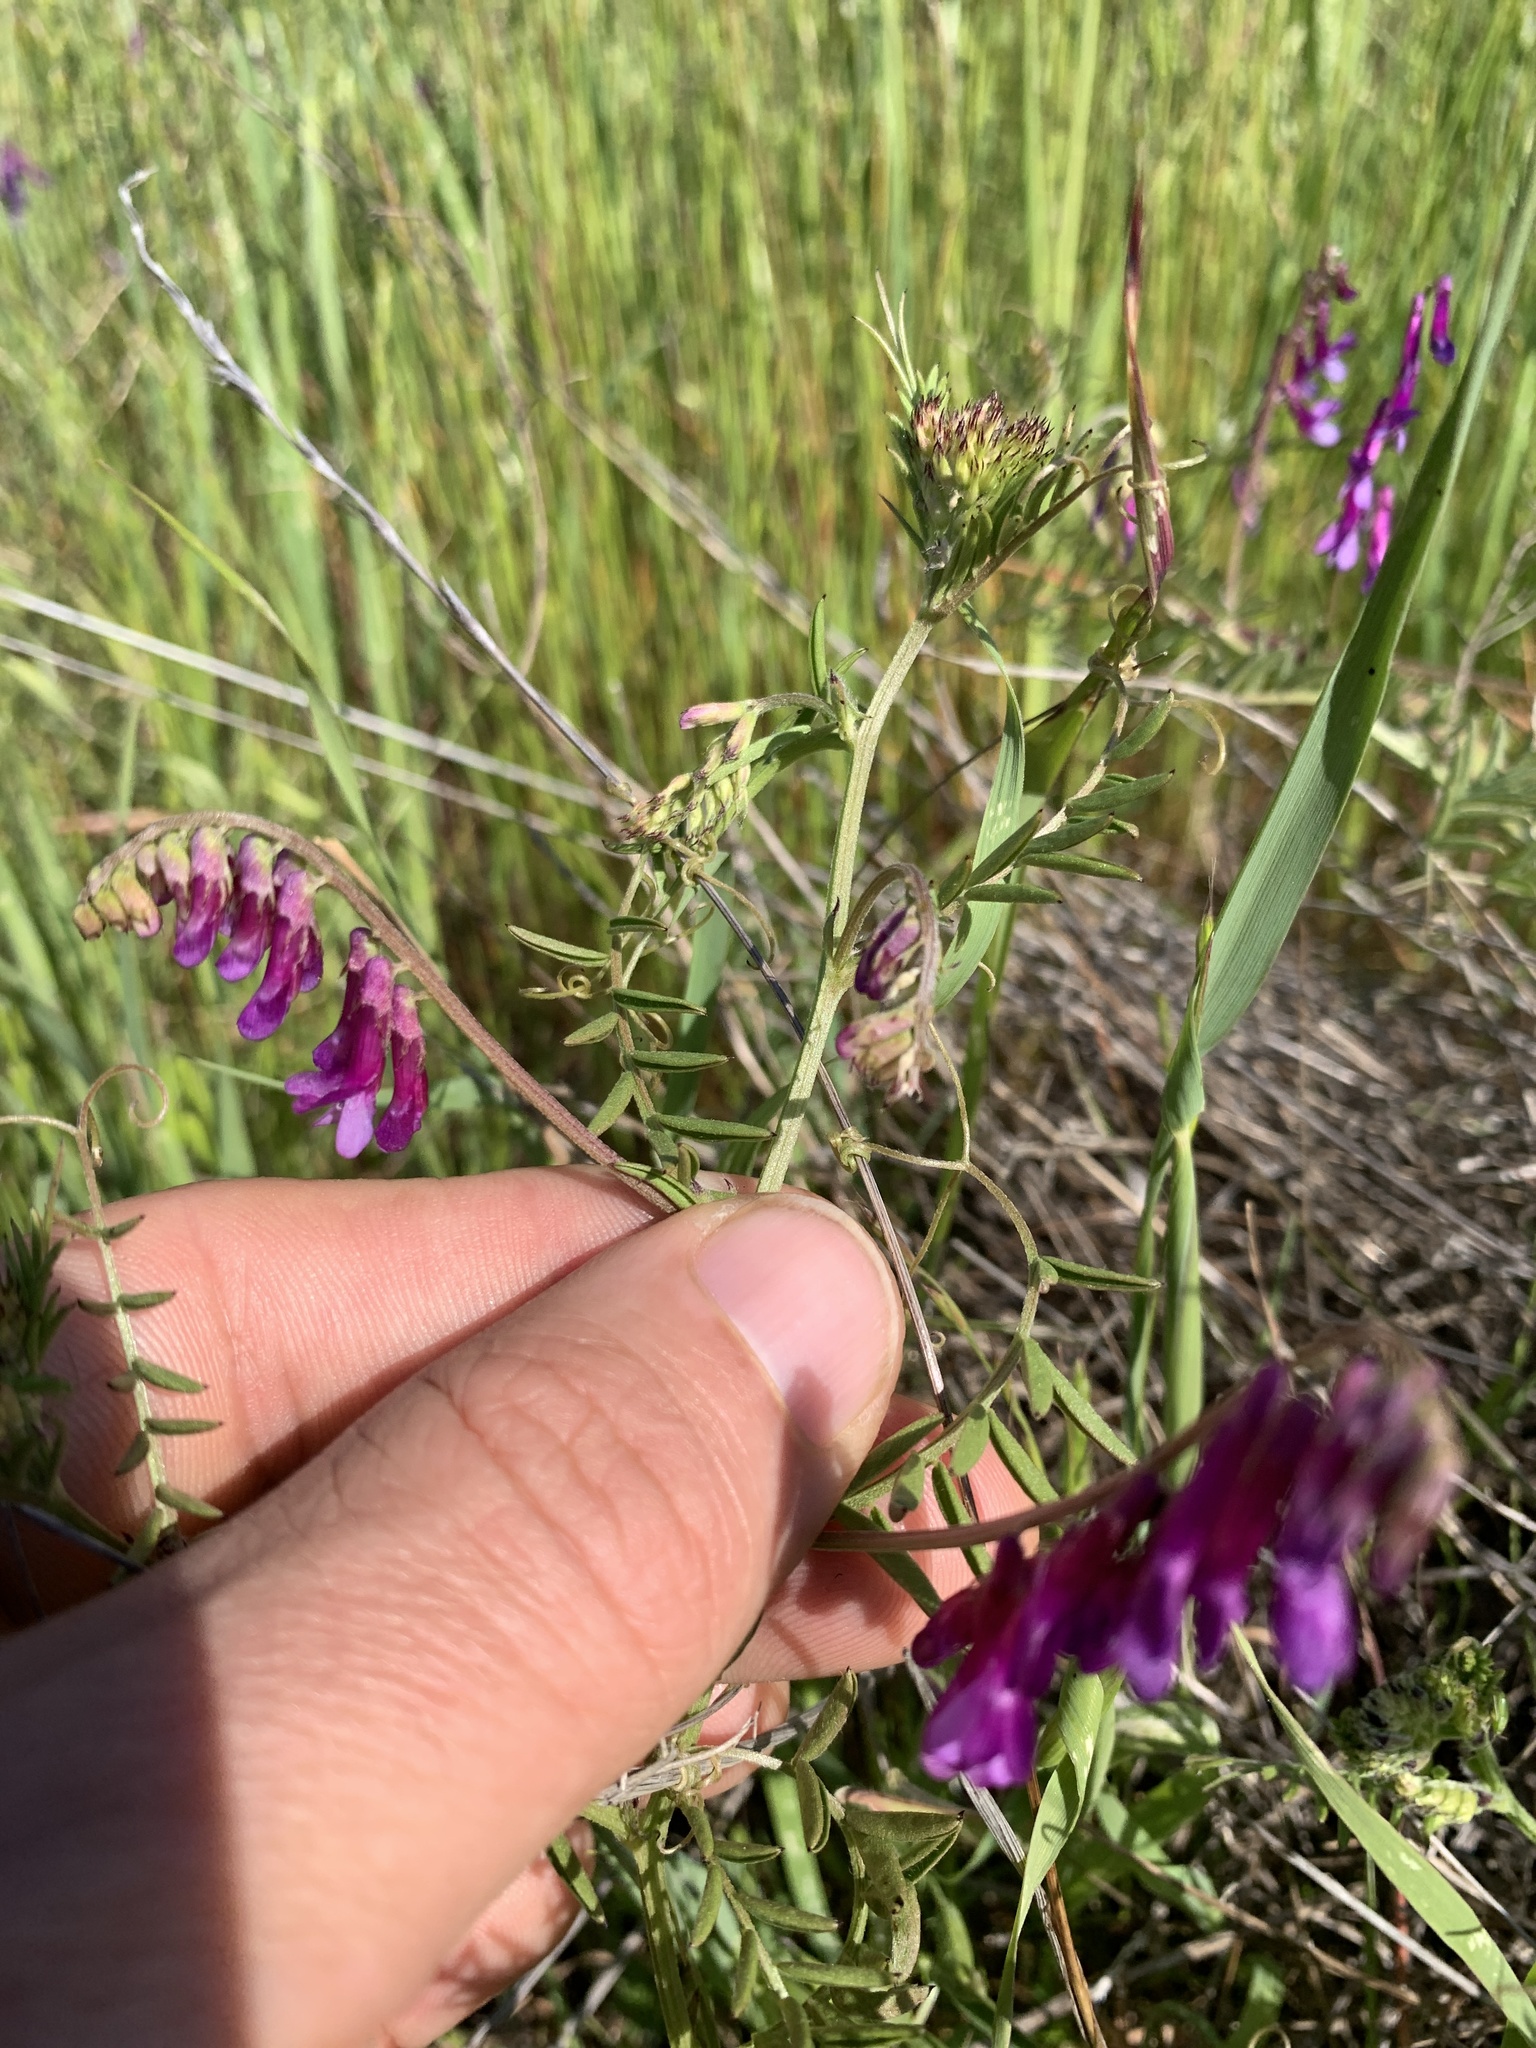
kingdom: Plantae
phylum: Tracheophyta
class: Magnoliopsida
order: Fabales
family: Fabaceae
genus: Vicia
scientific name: Vicia villosa
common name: Fodder vetch
